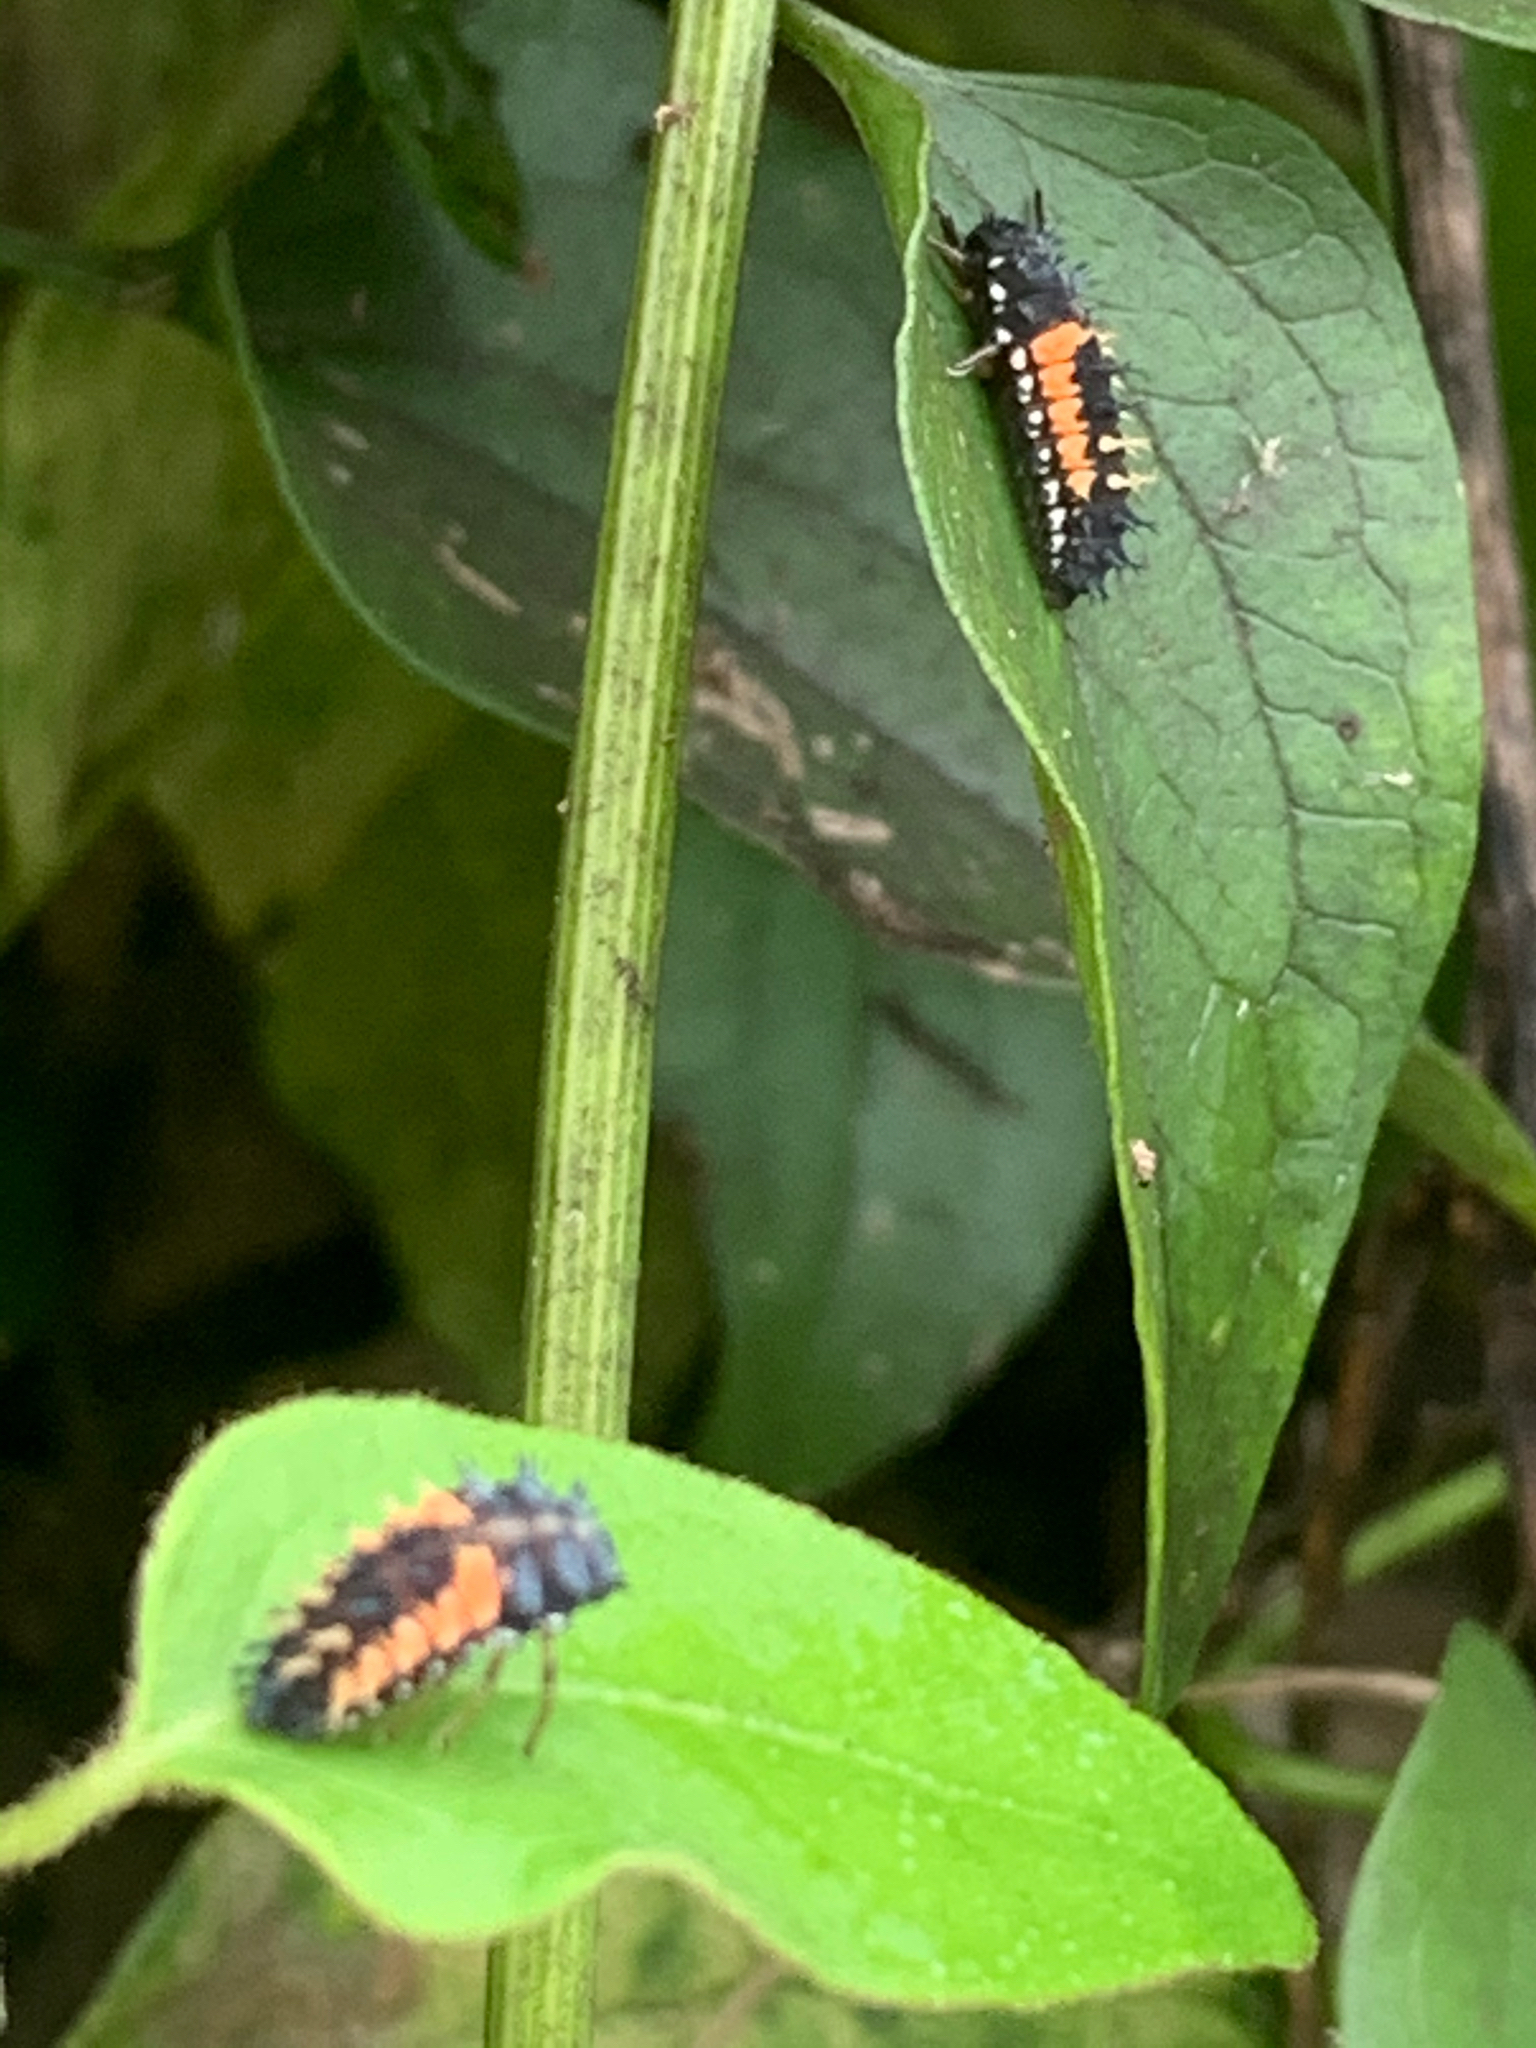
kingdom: Animalia
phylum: Arthropoda
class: Insecta
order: Coleoptera
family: Coccinellidae
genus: Harmonia
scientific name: Harmonia axyridis
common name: Harlequin ladybird
